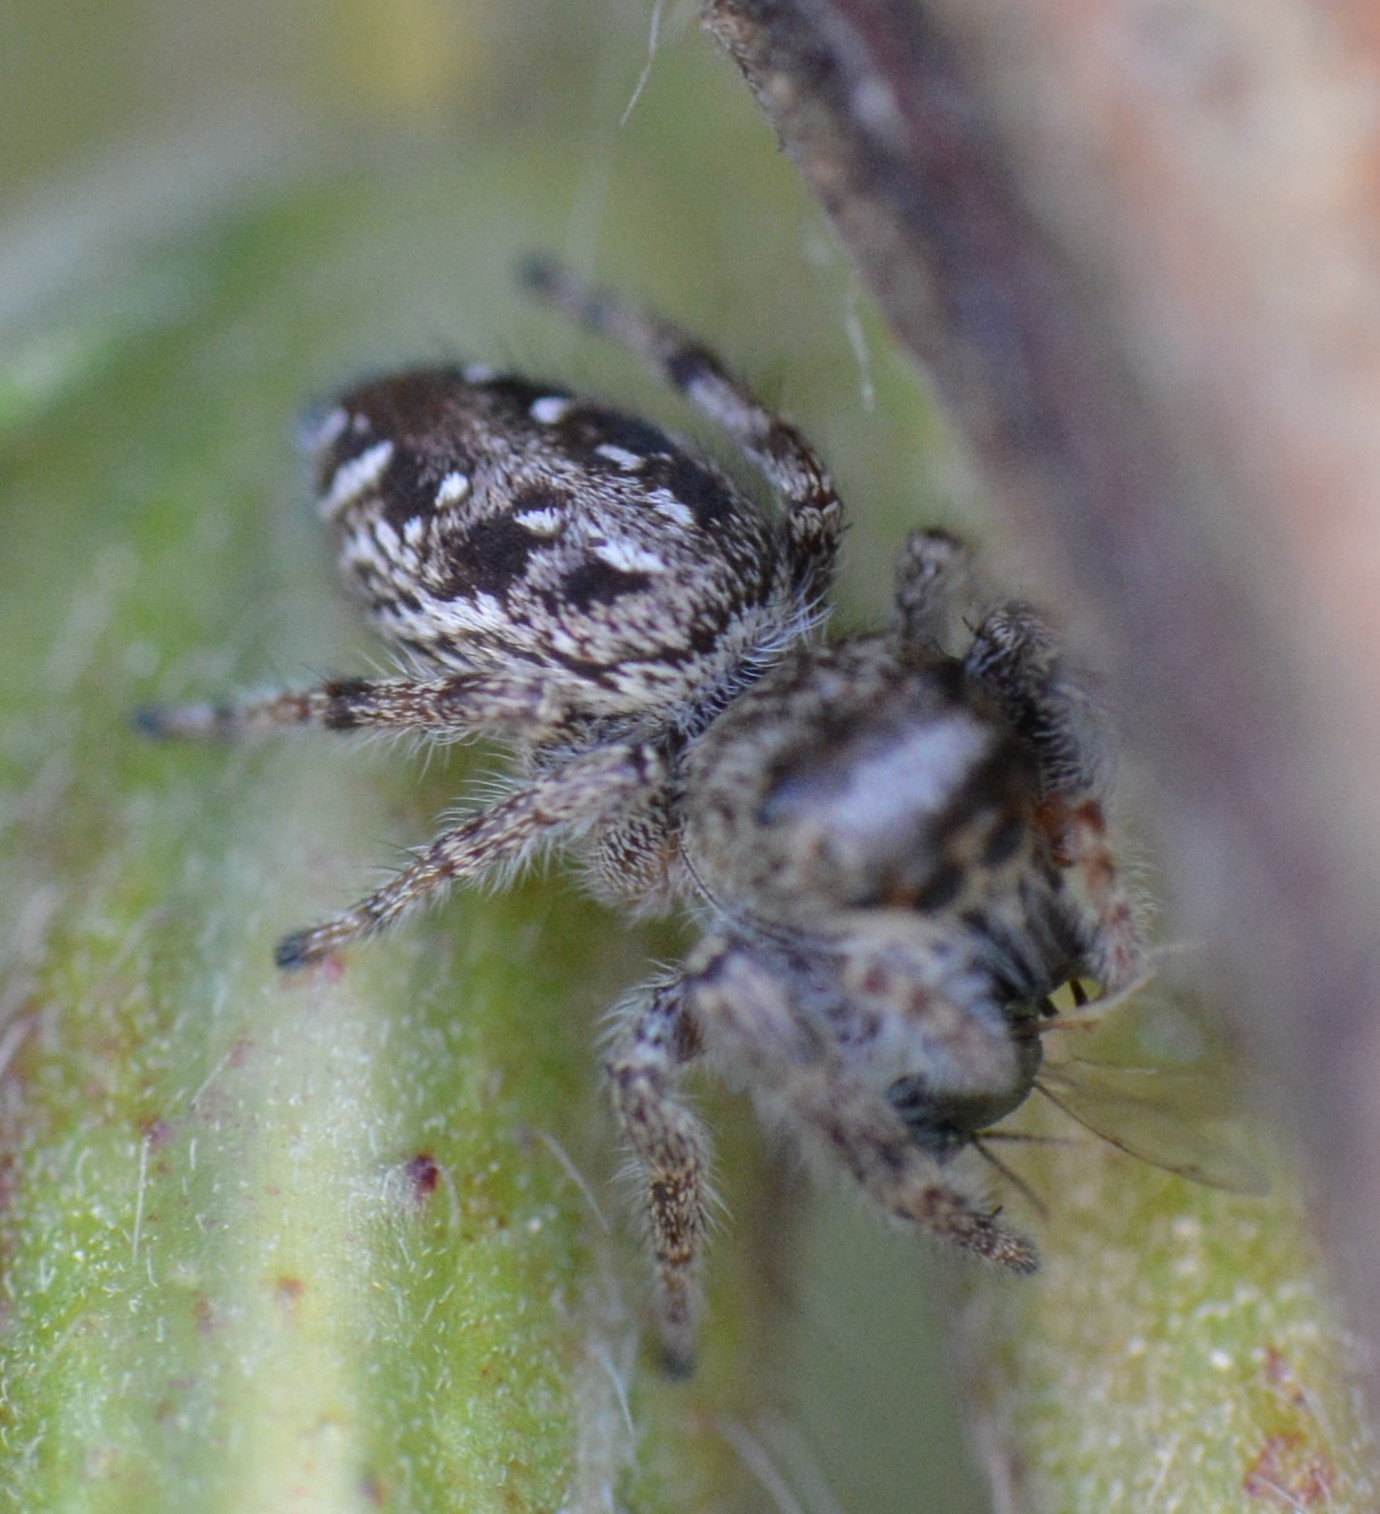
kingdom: Animalia
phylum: Arthropoda
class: Arachnida
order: Araneae
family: Salticidae
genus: Eris
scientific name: Eris militaris
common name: Bronze jumper
